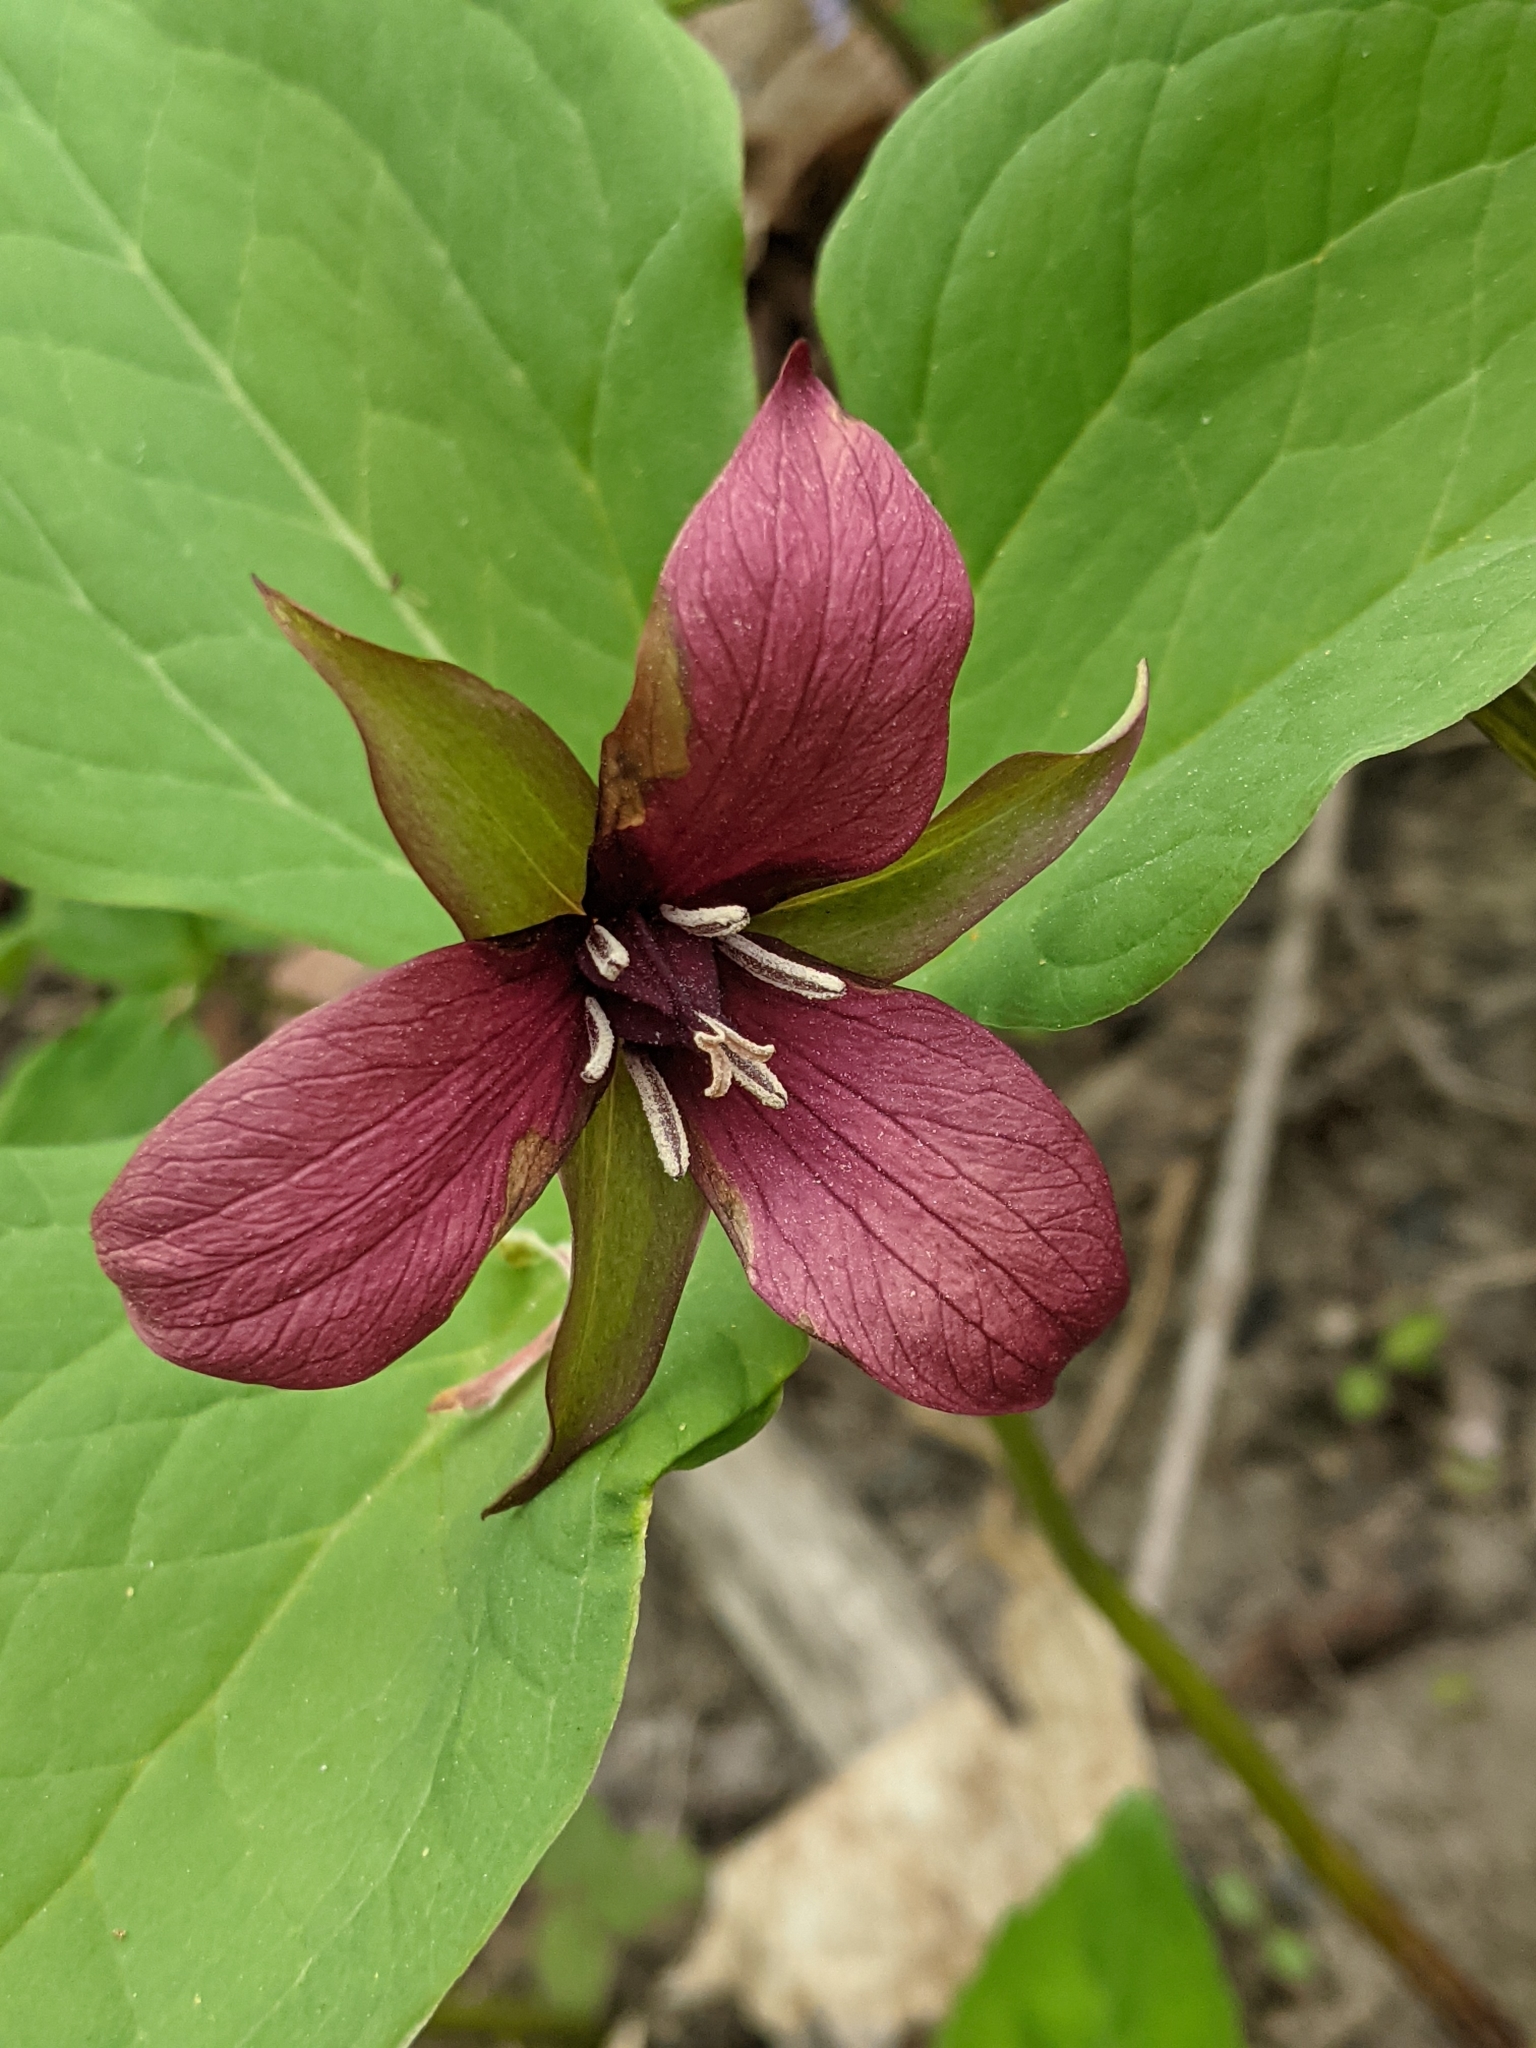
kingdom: Plantae
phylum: Tracheophyta
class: Liliopsida
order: Liliales
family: Melanthiaceae
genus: Trillium
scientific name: Trillium erectum
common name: Purple trillium
